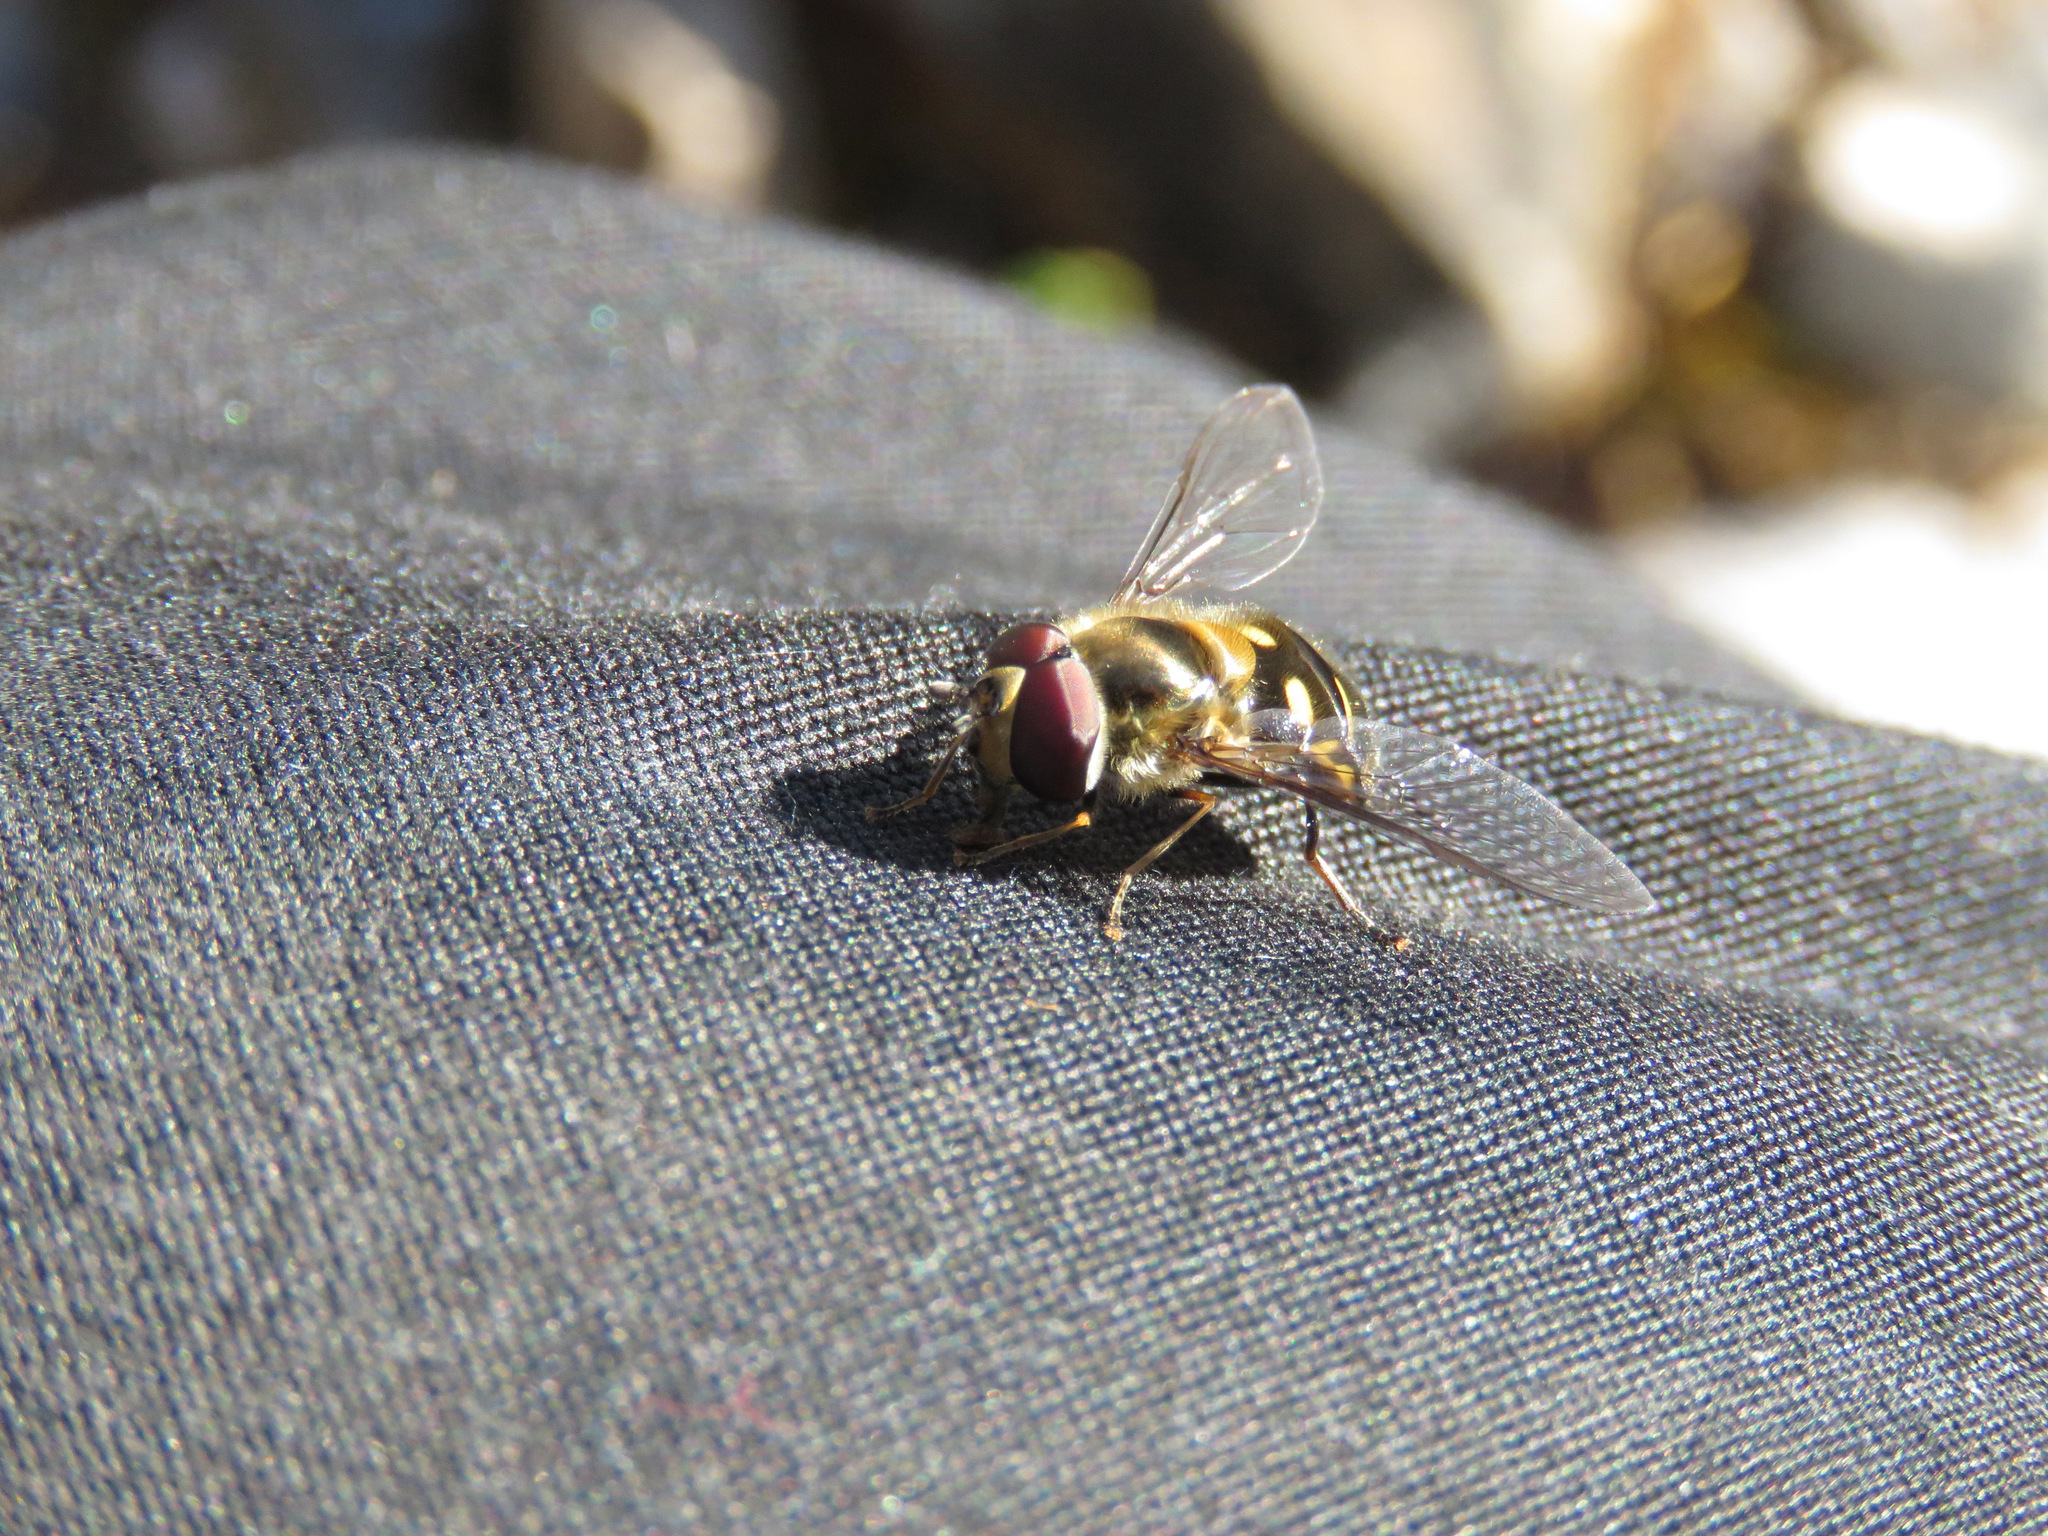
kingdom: Animalia
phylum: Arthropoda
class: Insecta
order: Diptera
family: Syrphidae
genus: Lapposyrphus
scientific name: Lapposyrphus lapponicus
